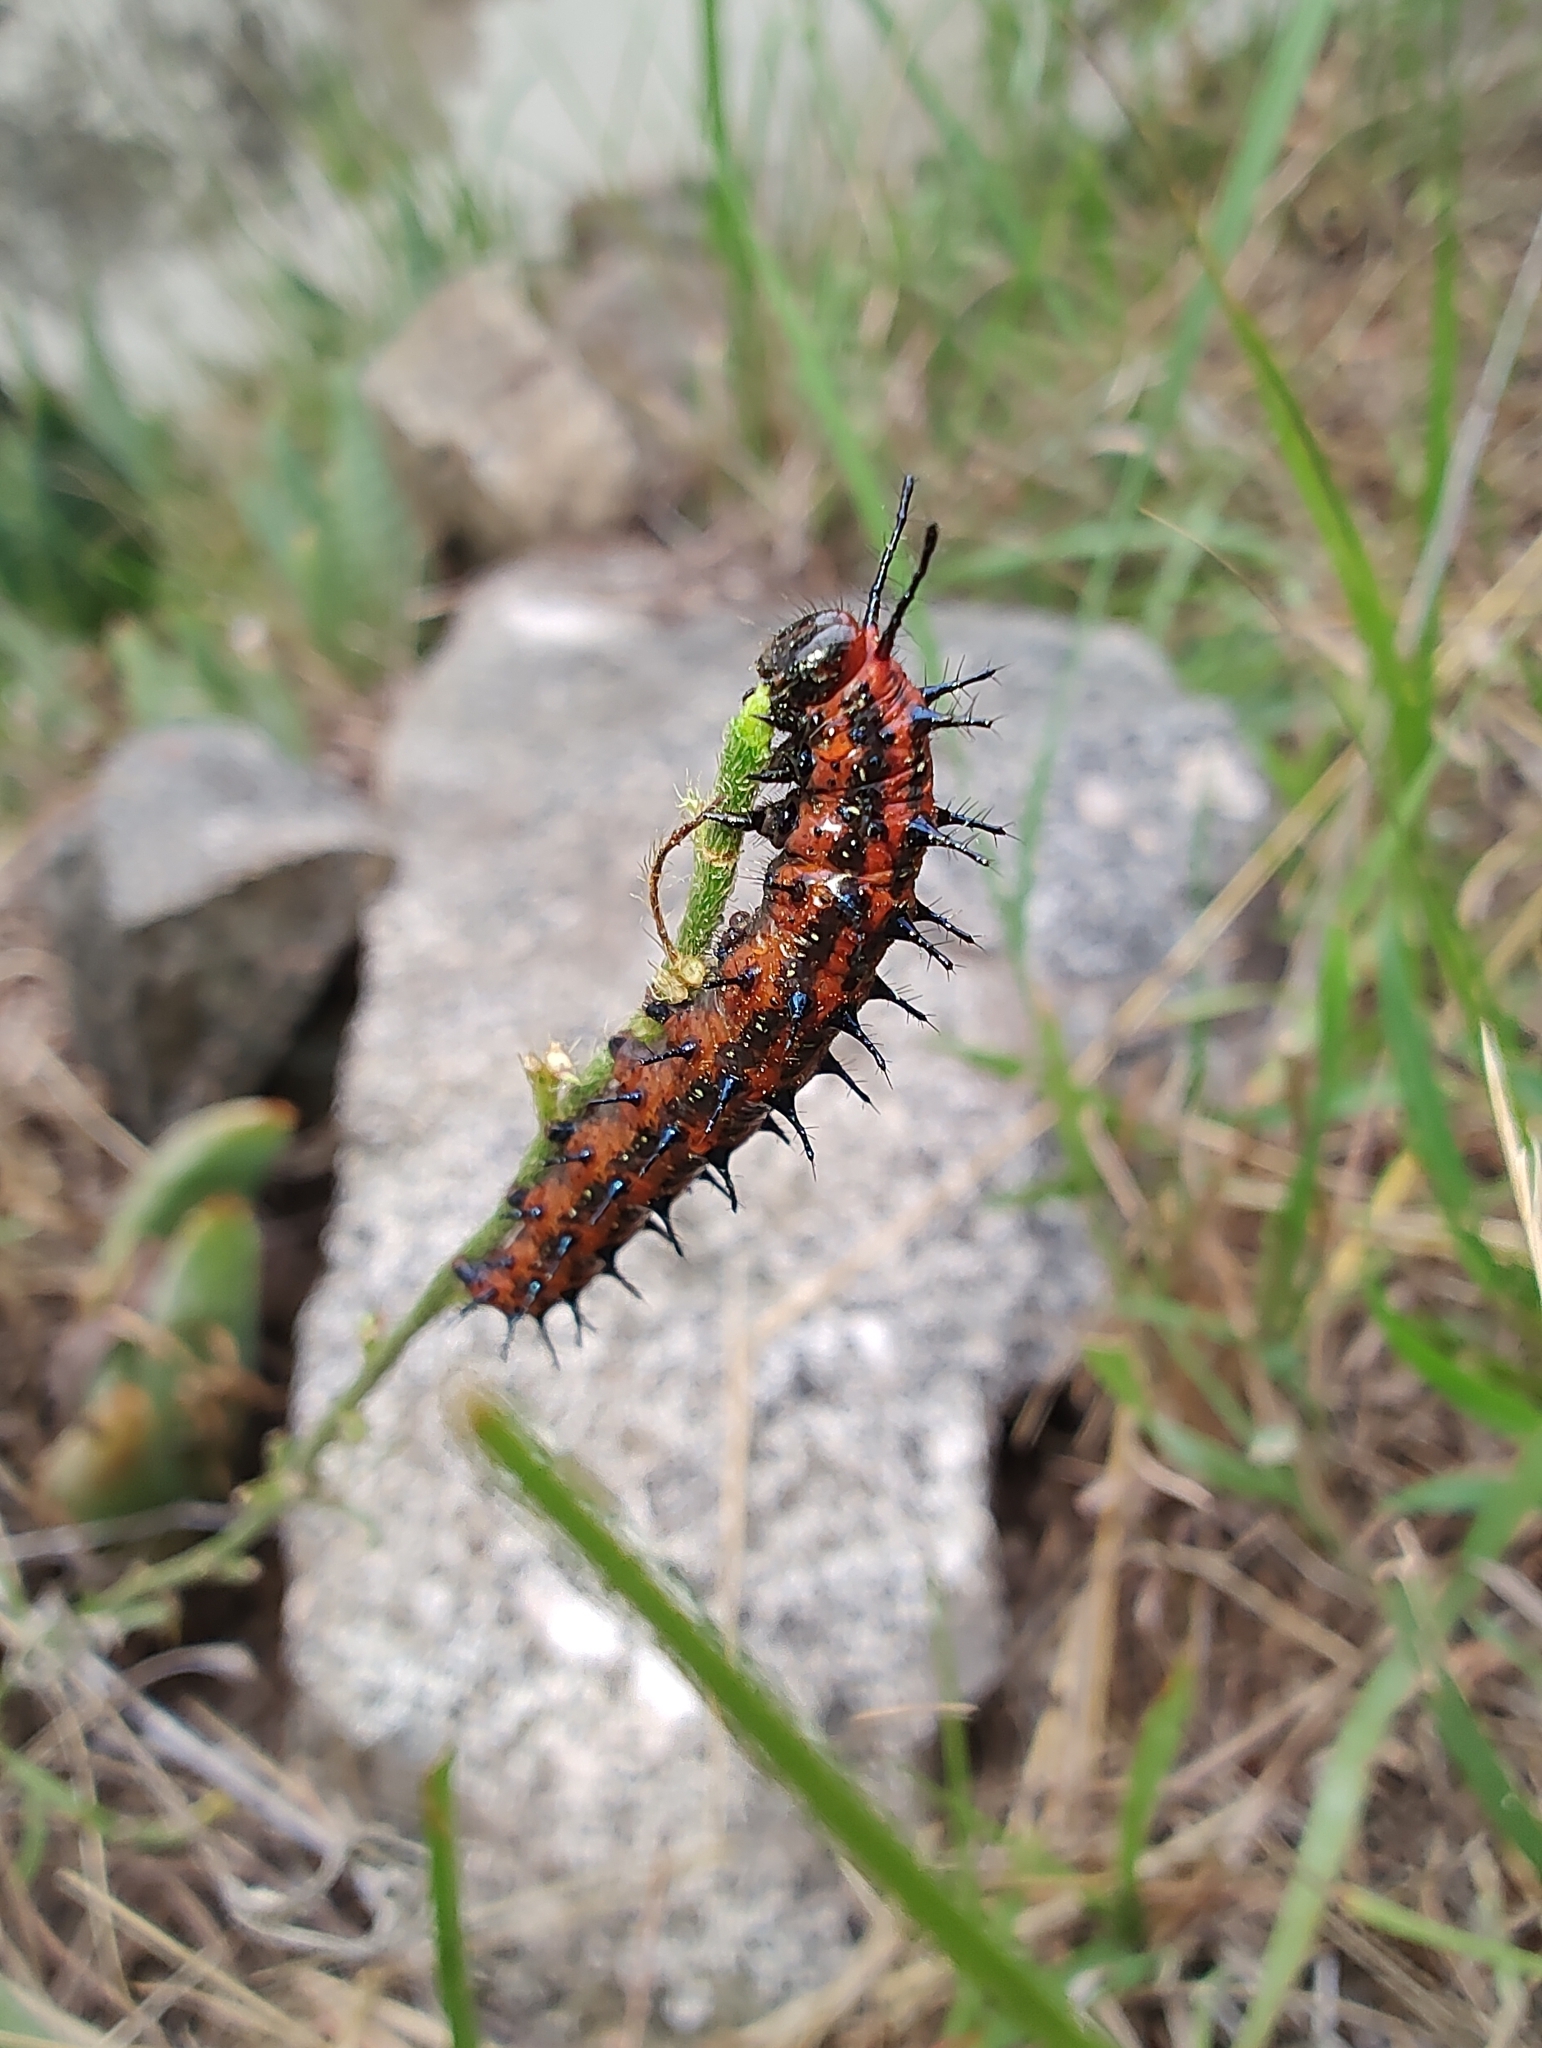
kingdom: Animalia
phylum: Arthropoda
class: Insecta
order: Lepidoptera
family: Nymphalidae
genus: Euptoieta
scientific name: Euptoieta hortensia
